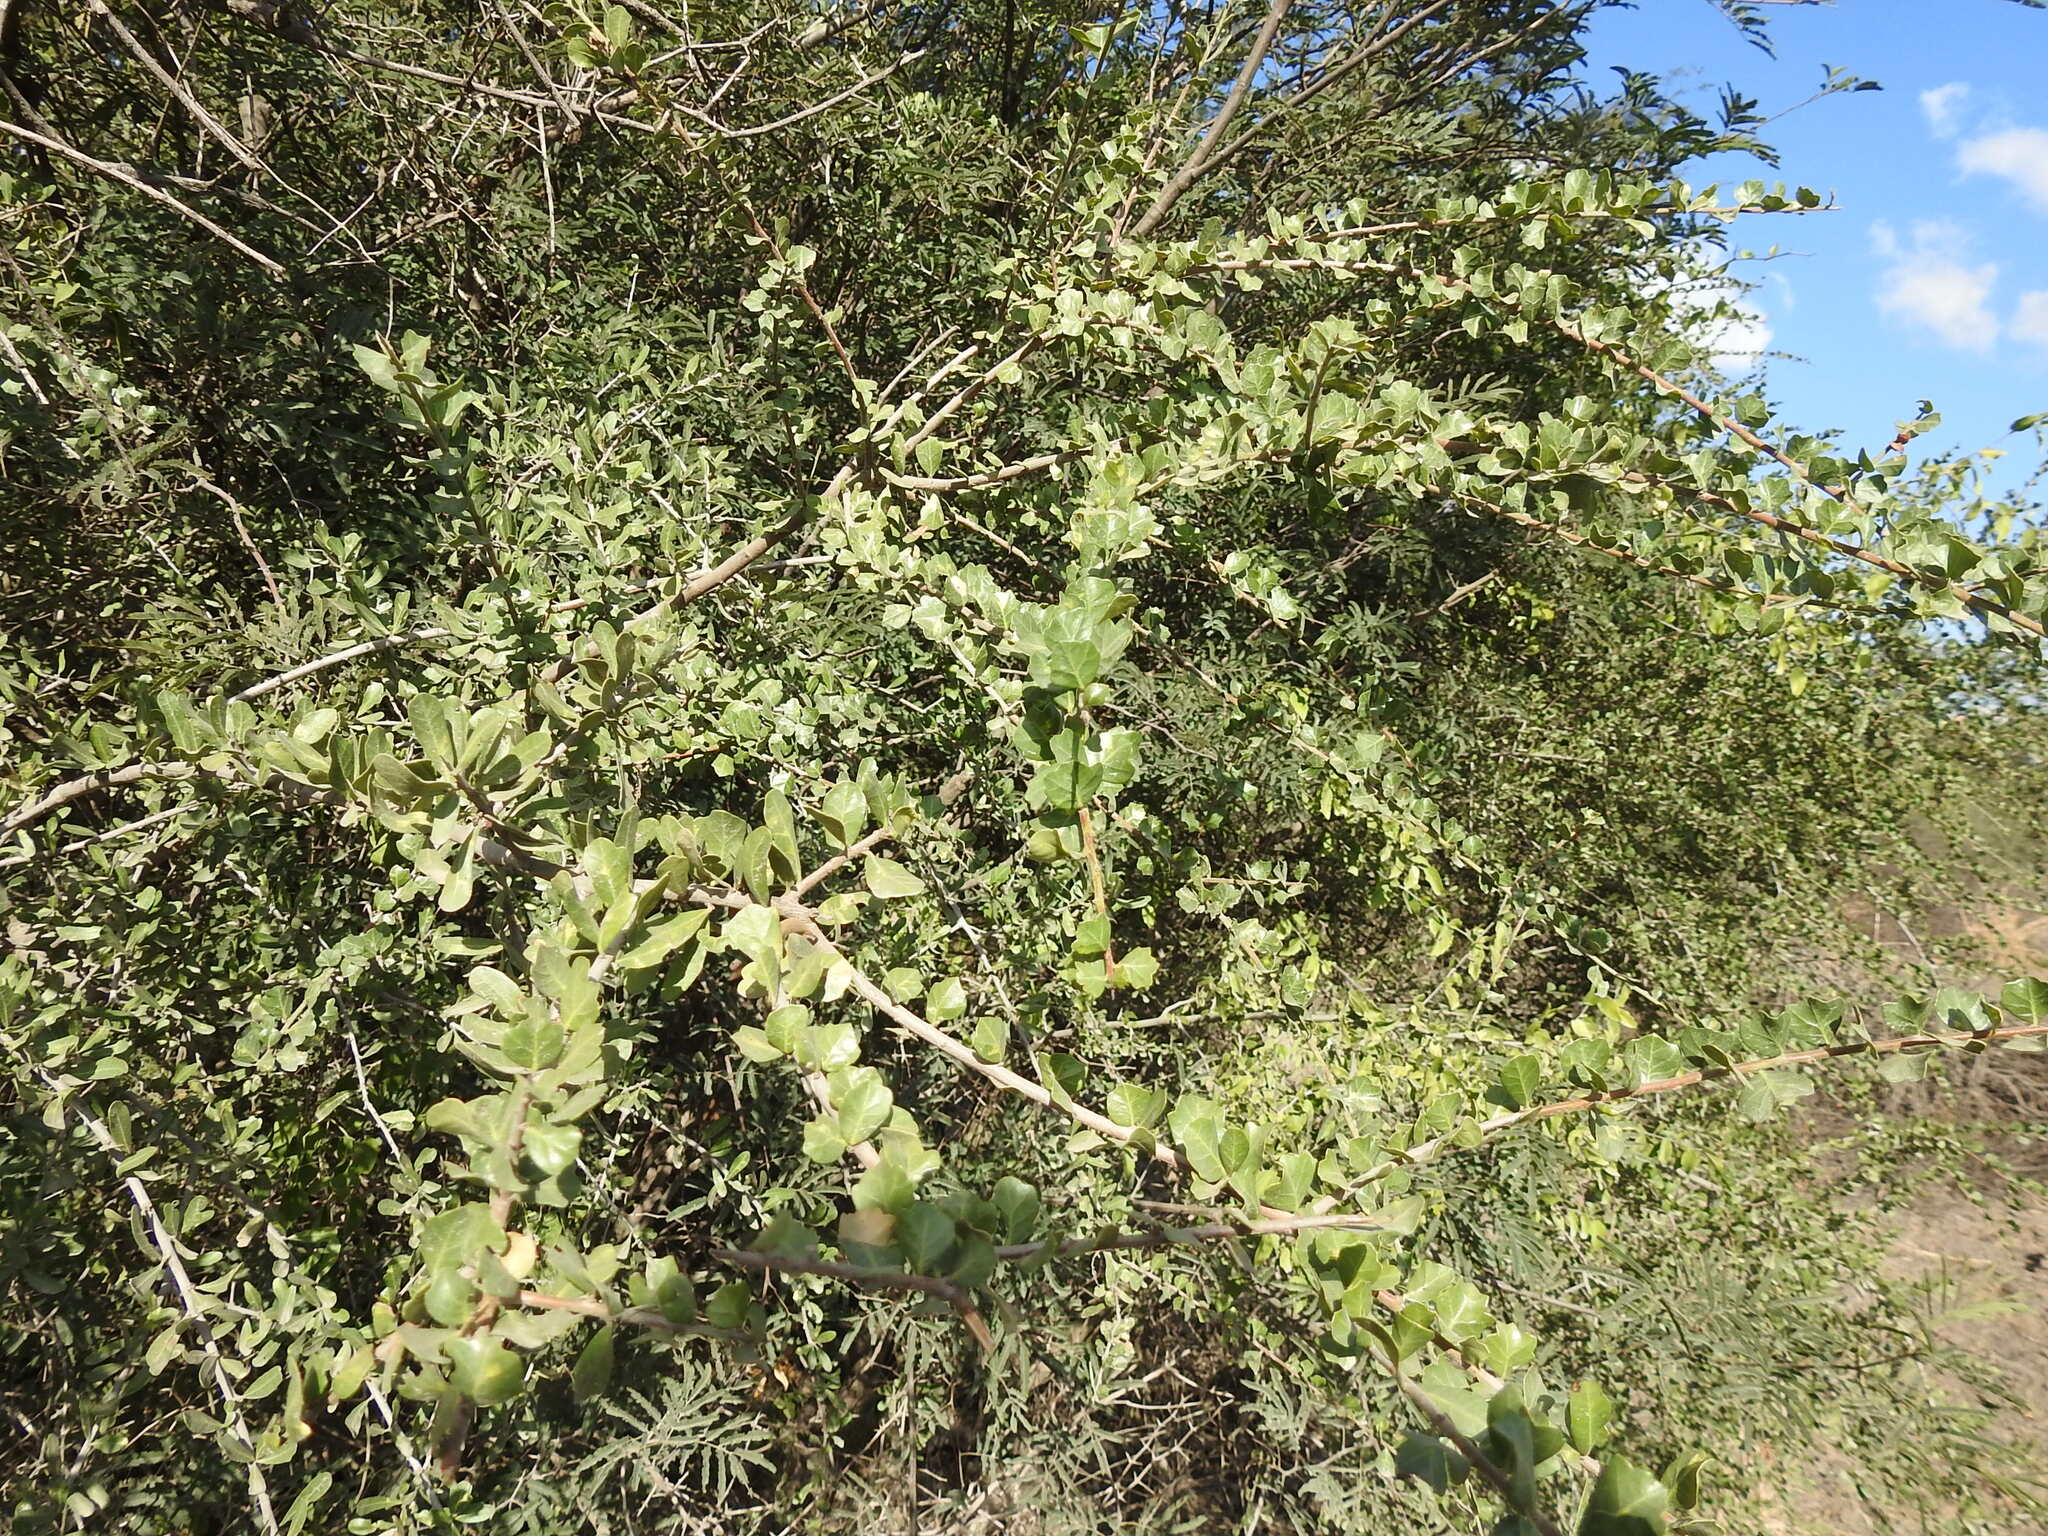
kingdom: Plantae
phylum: Tracheophyta
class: Magnoliopsida
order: Sapindales
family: Anacardiaceae
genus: Schinus
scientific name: Schinus fasciculata
